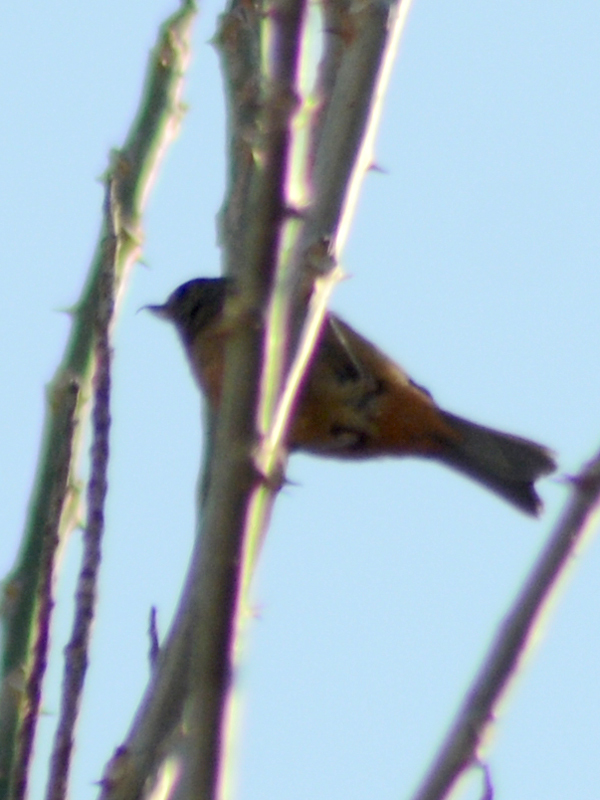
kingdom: Animalia
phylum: Chordata
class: Aves
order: Passeriformes
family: Thraupidae
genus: Diglossa
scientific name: Diglossa baritula
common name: Cinnamon-bellied flowerpiercer
